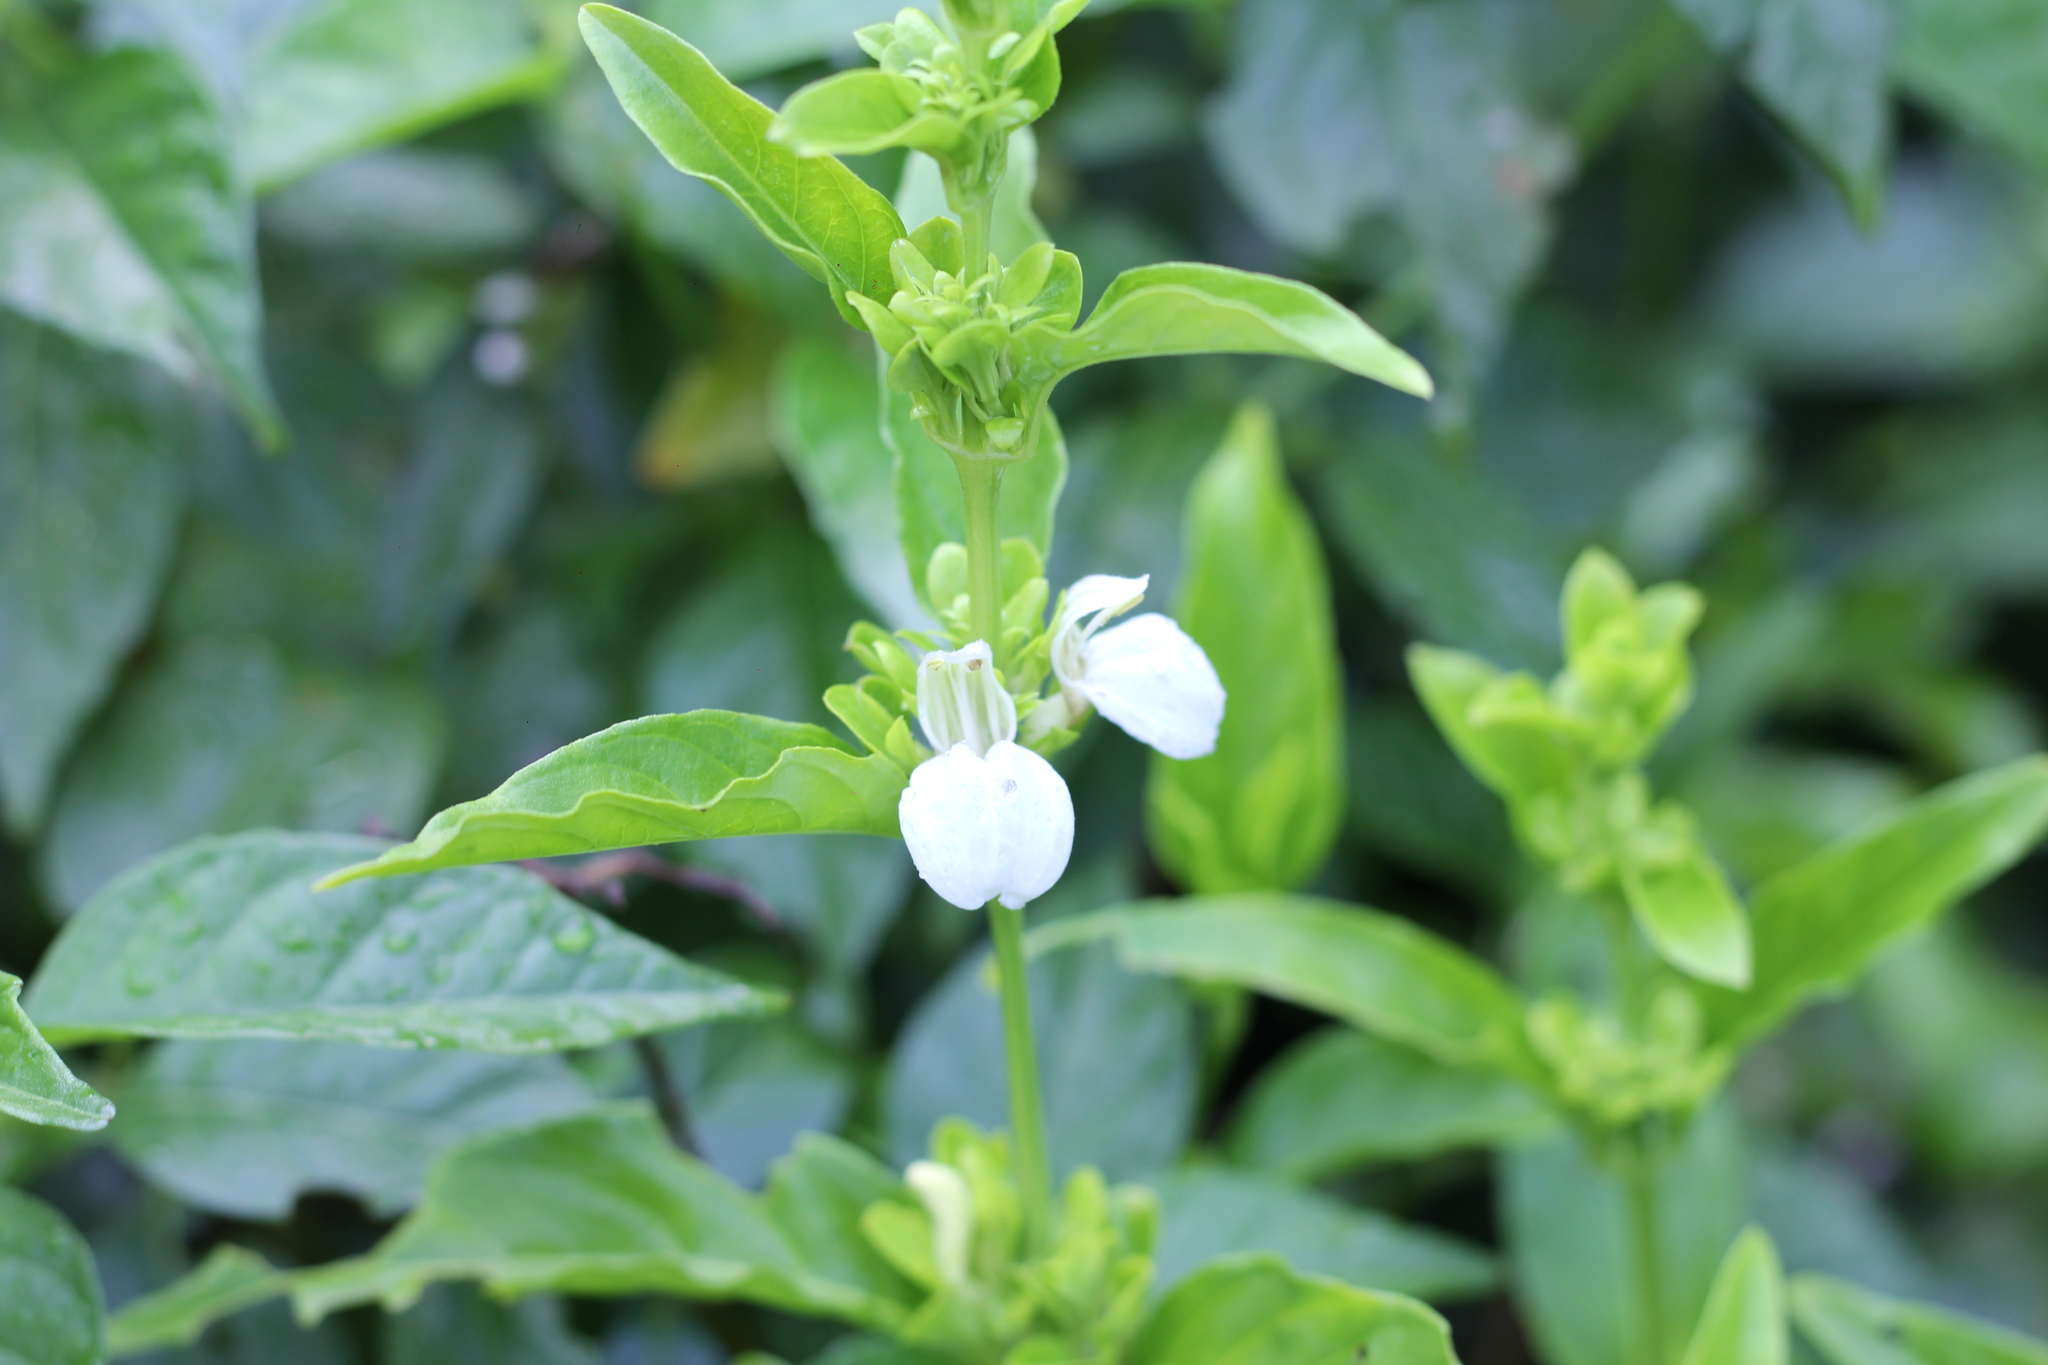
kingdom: Plantae
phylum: Tracheophyta
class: Magnoliopsida
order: Lamiales
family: Acanthaceae
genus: Poikilacanthus
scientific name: Poikilacanthus glandulosus
